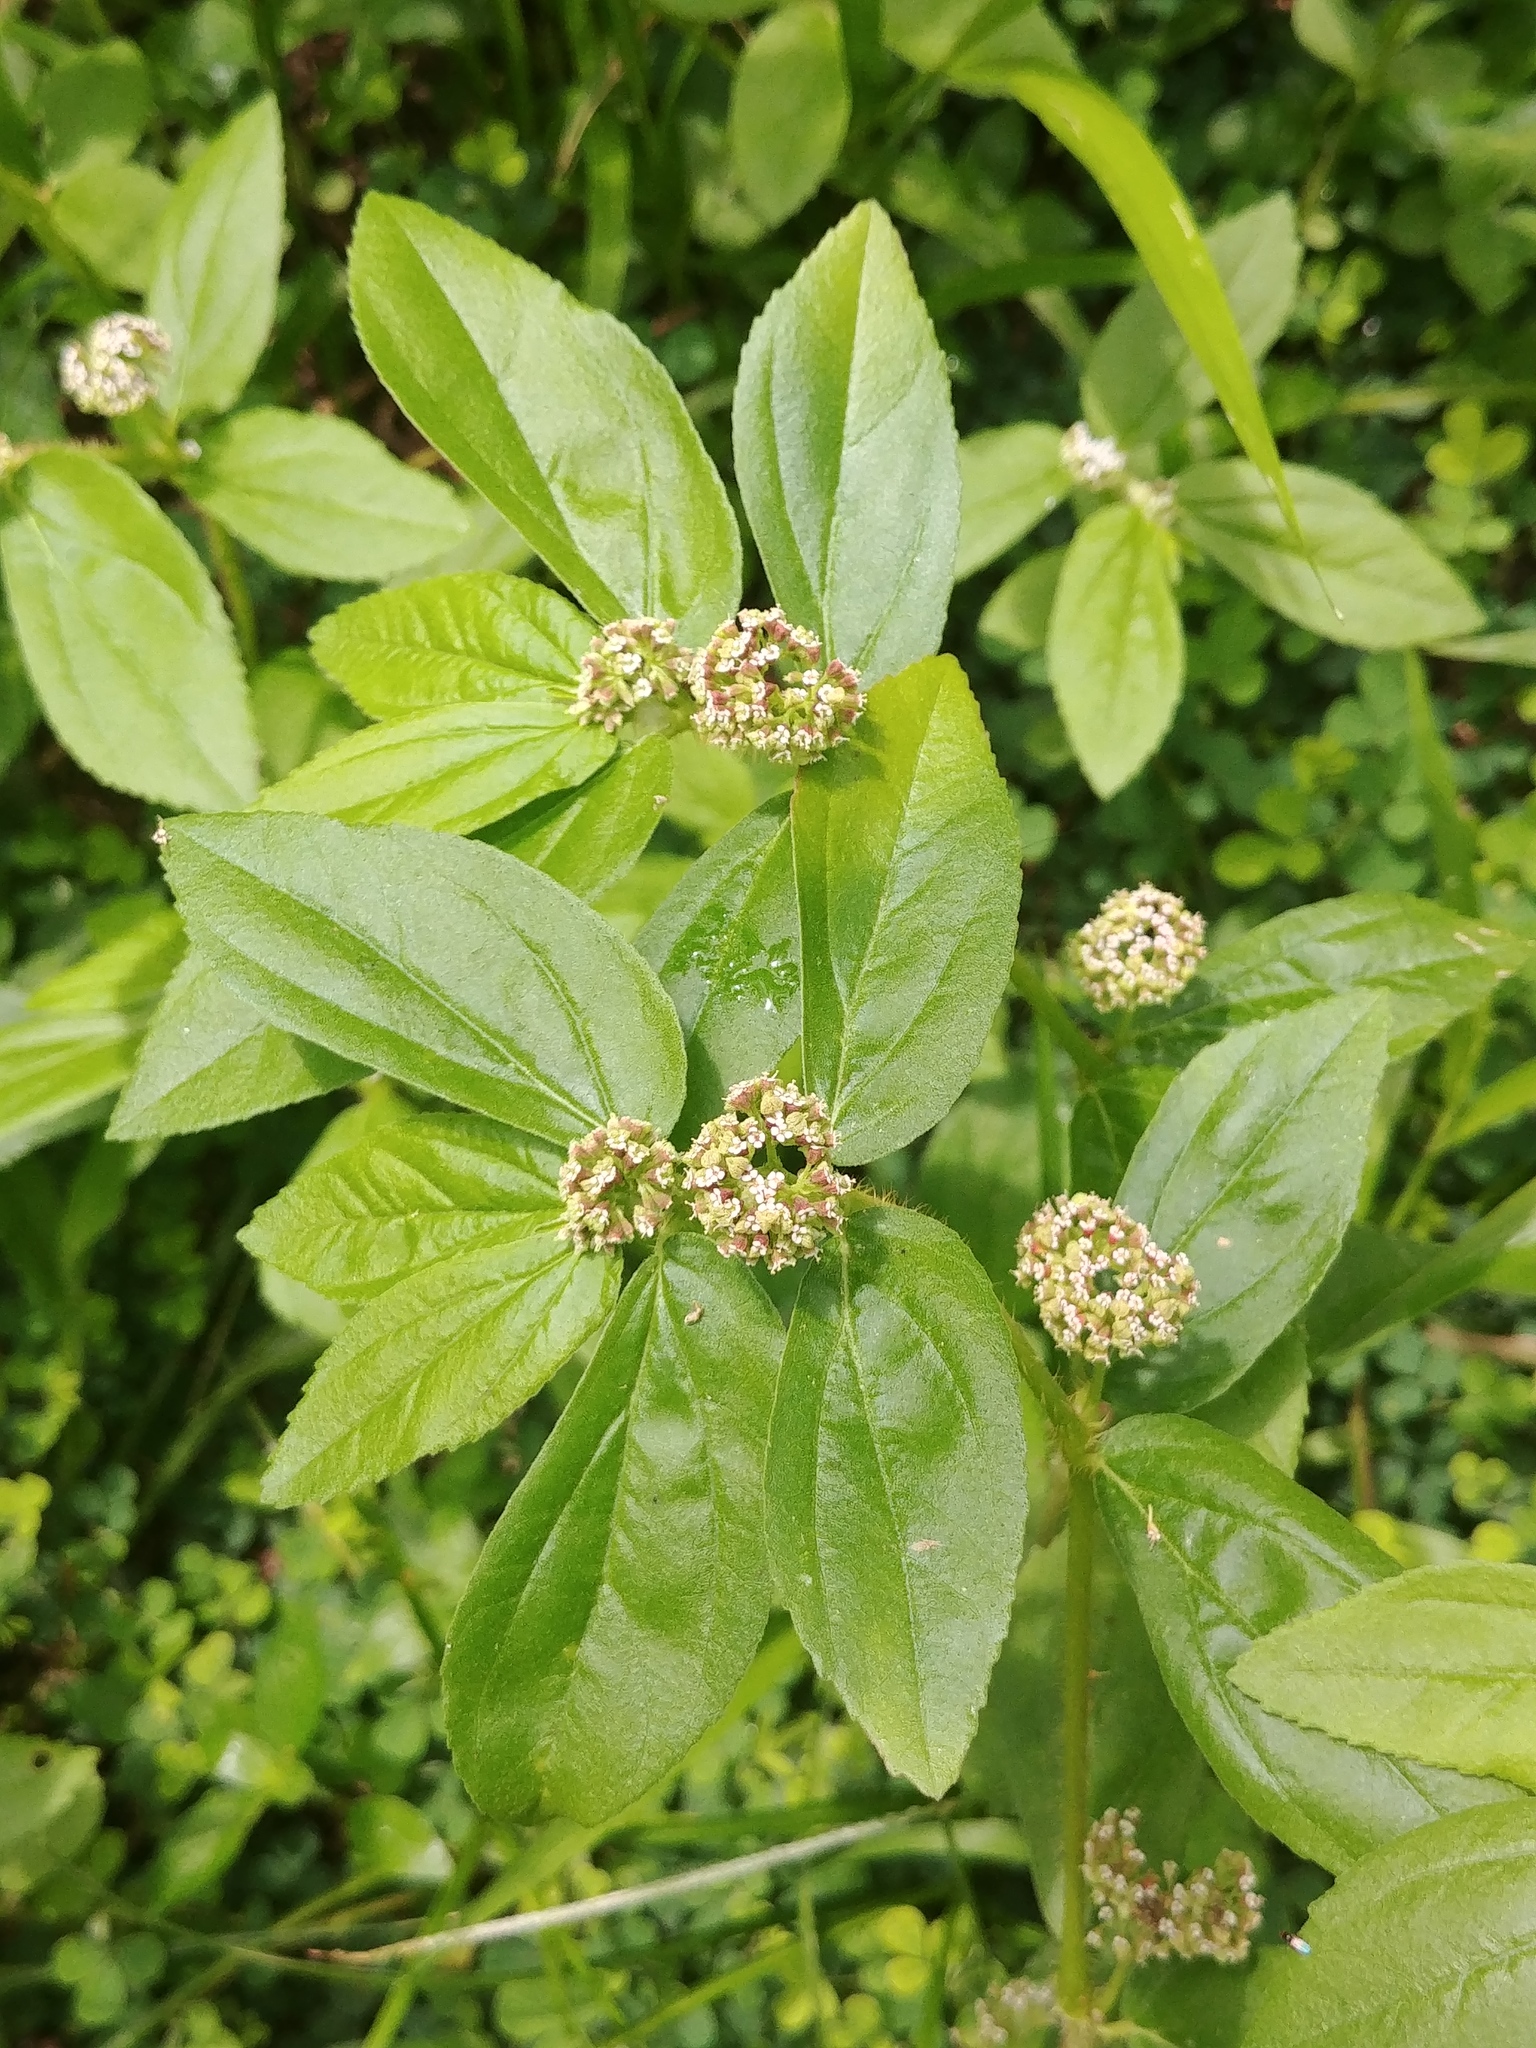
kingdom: Plantae
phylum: Tracheophyta
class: Magnoliopsida
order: Malpighiales
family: Euphorbiaceae
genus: Euphorbia
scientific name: Euphorbia hirta
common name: Pillpod sandmat
